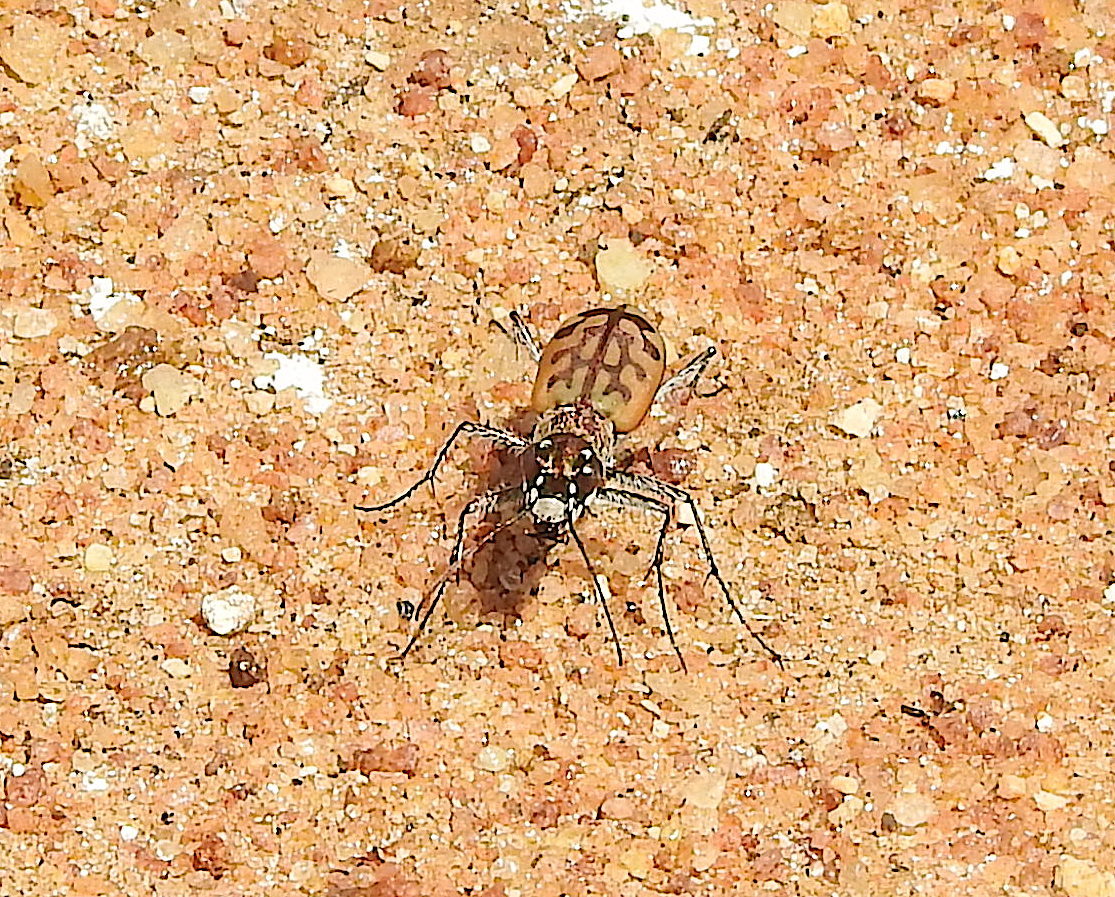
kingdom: Animalia
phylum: Arthropoda
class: Insecta
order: Coleoptera
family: Carabidae
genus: Lophyra
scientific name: Lophyra catena
